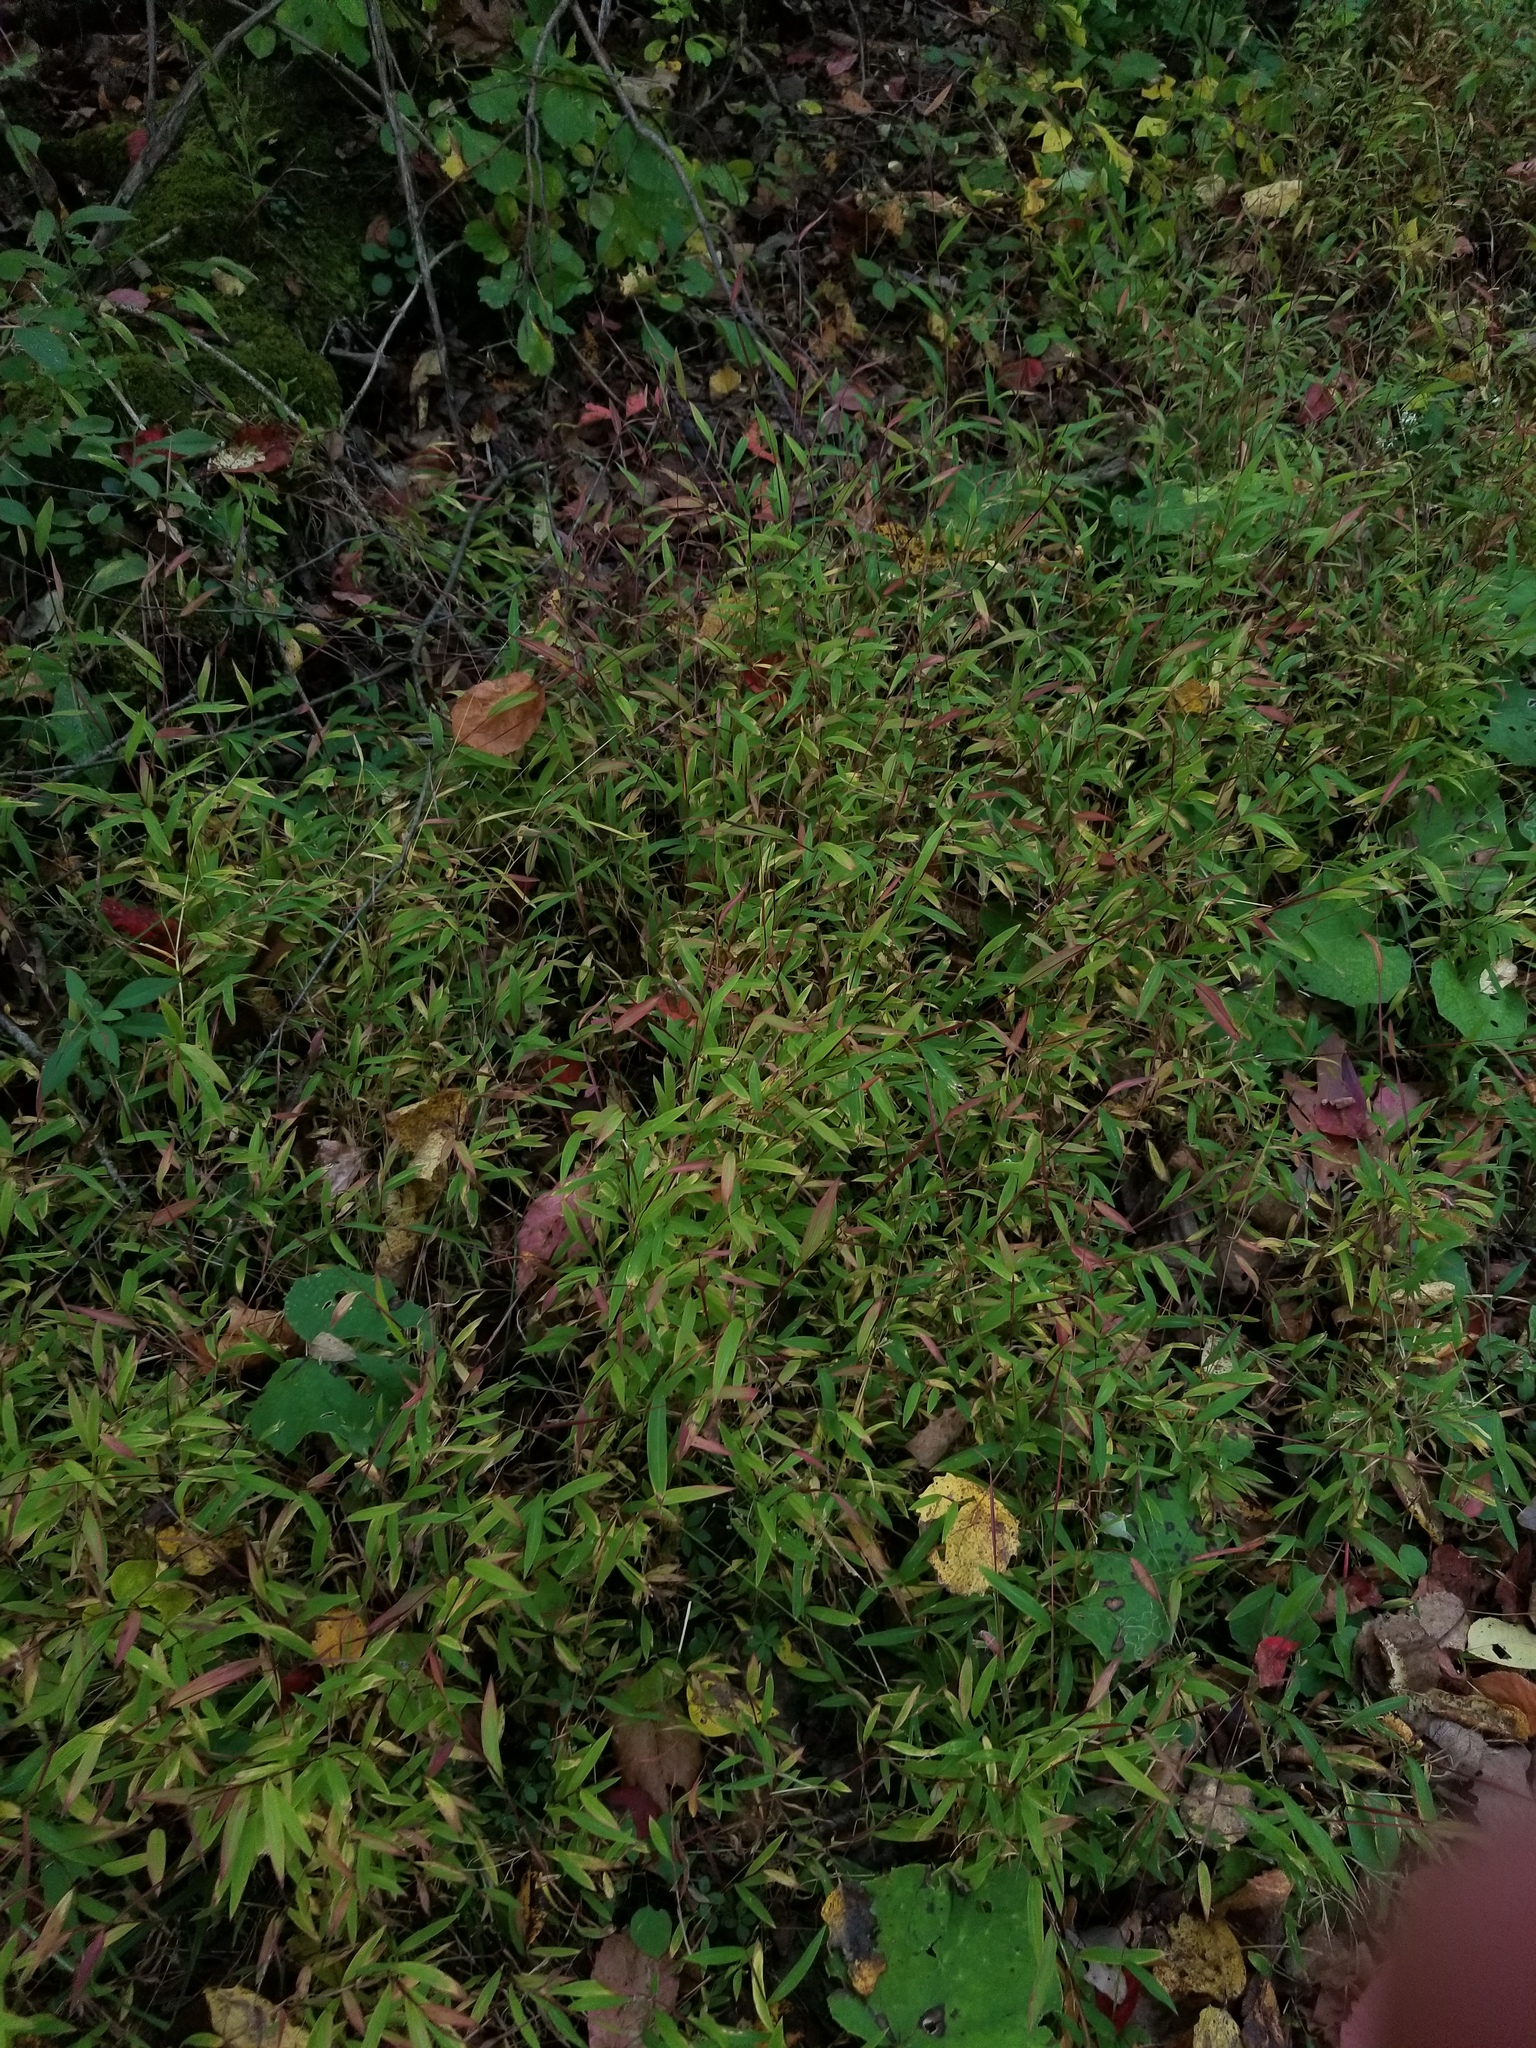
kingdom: Plantae
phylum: Tracheophyta
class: Liliopsida
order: Poales
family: Poaceae
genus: Microstegium
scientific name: Microstegium vimineum
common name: Japanese stiltgrass
